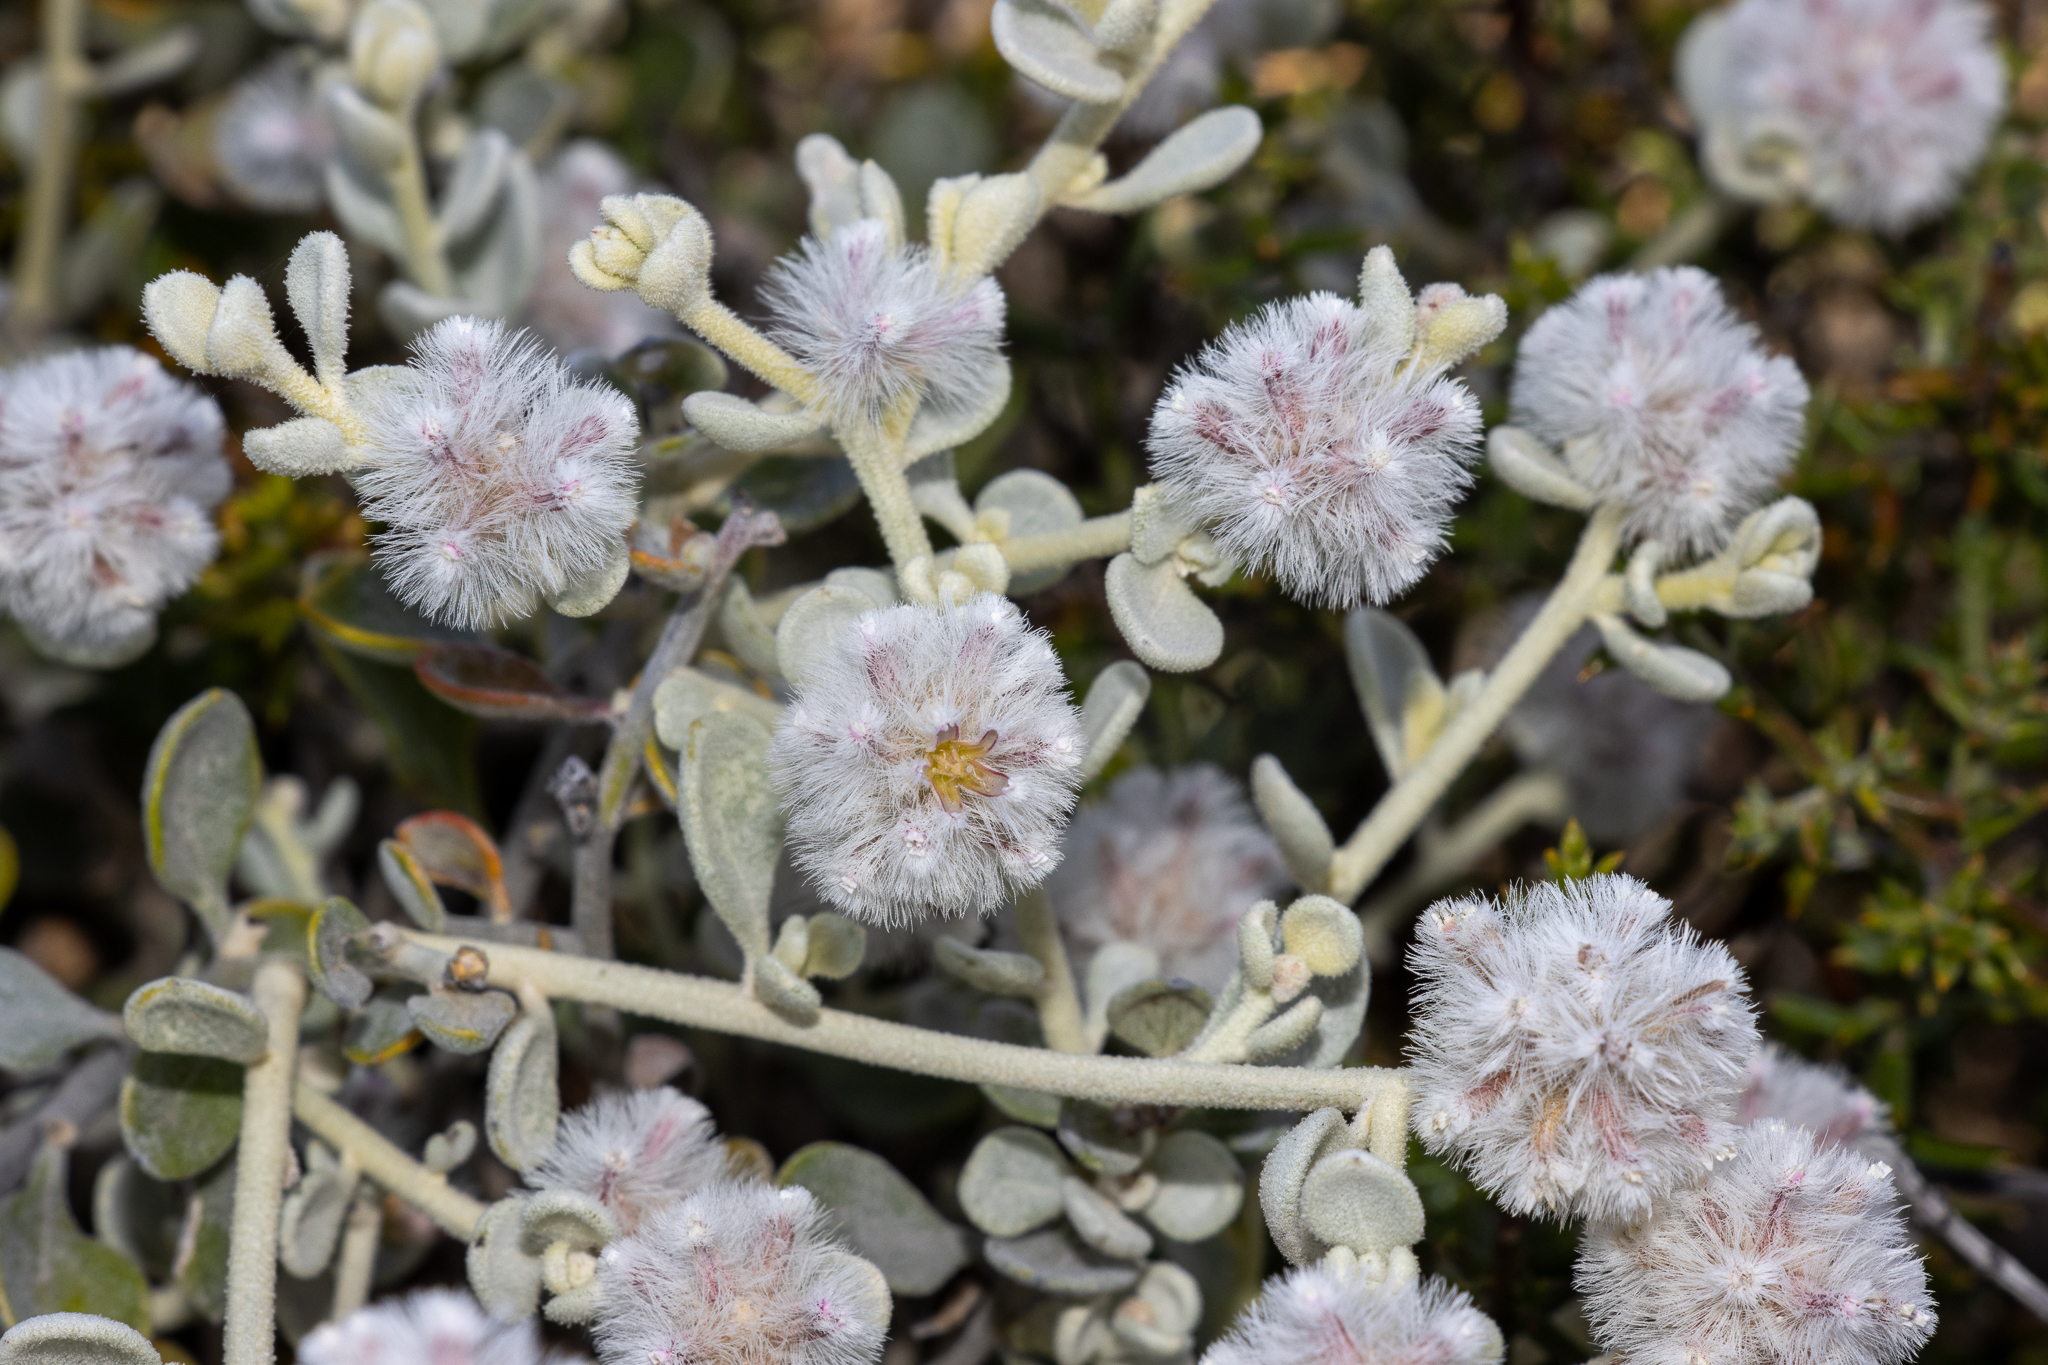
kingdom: Plantae
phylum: Tracheophyta
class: Magnoliopsida
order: Caryophyllales
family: Amaranthaceae
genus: Ptilotus
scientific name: Ptilotus obovatus
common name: Cottonbush
